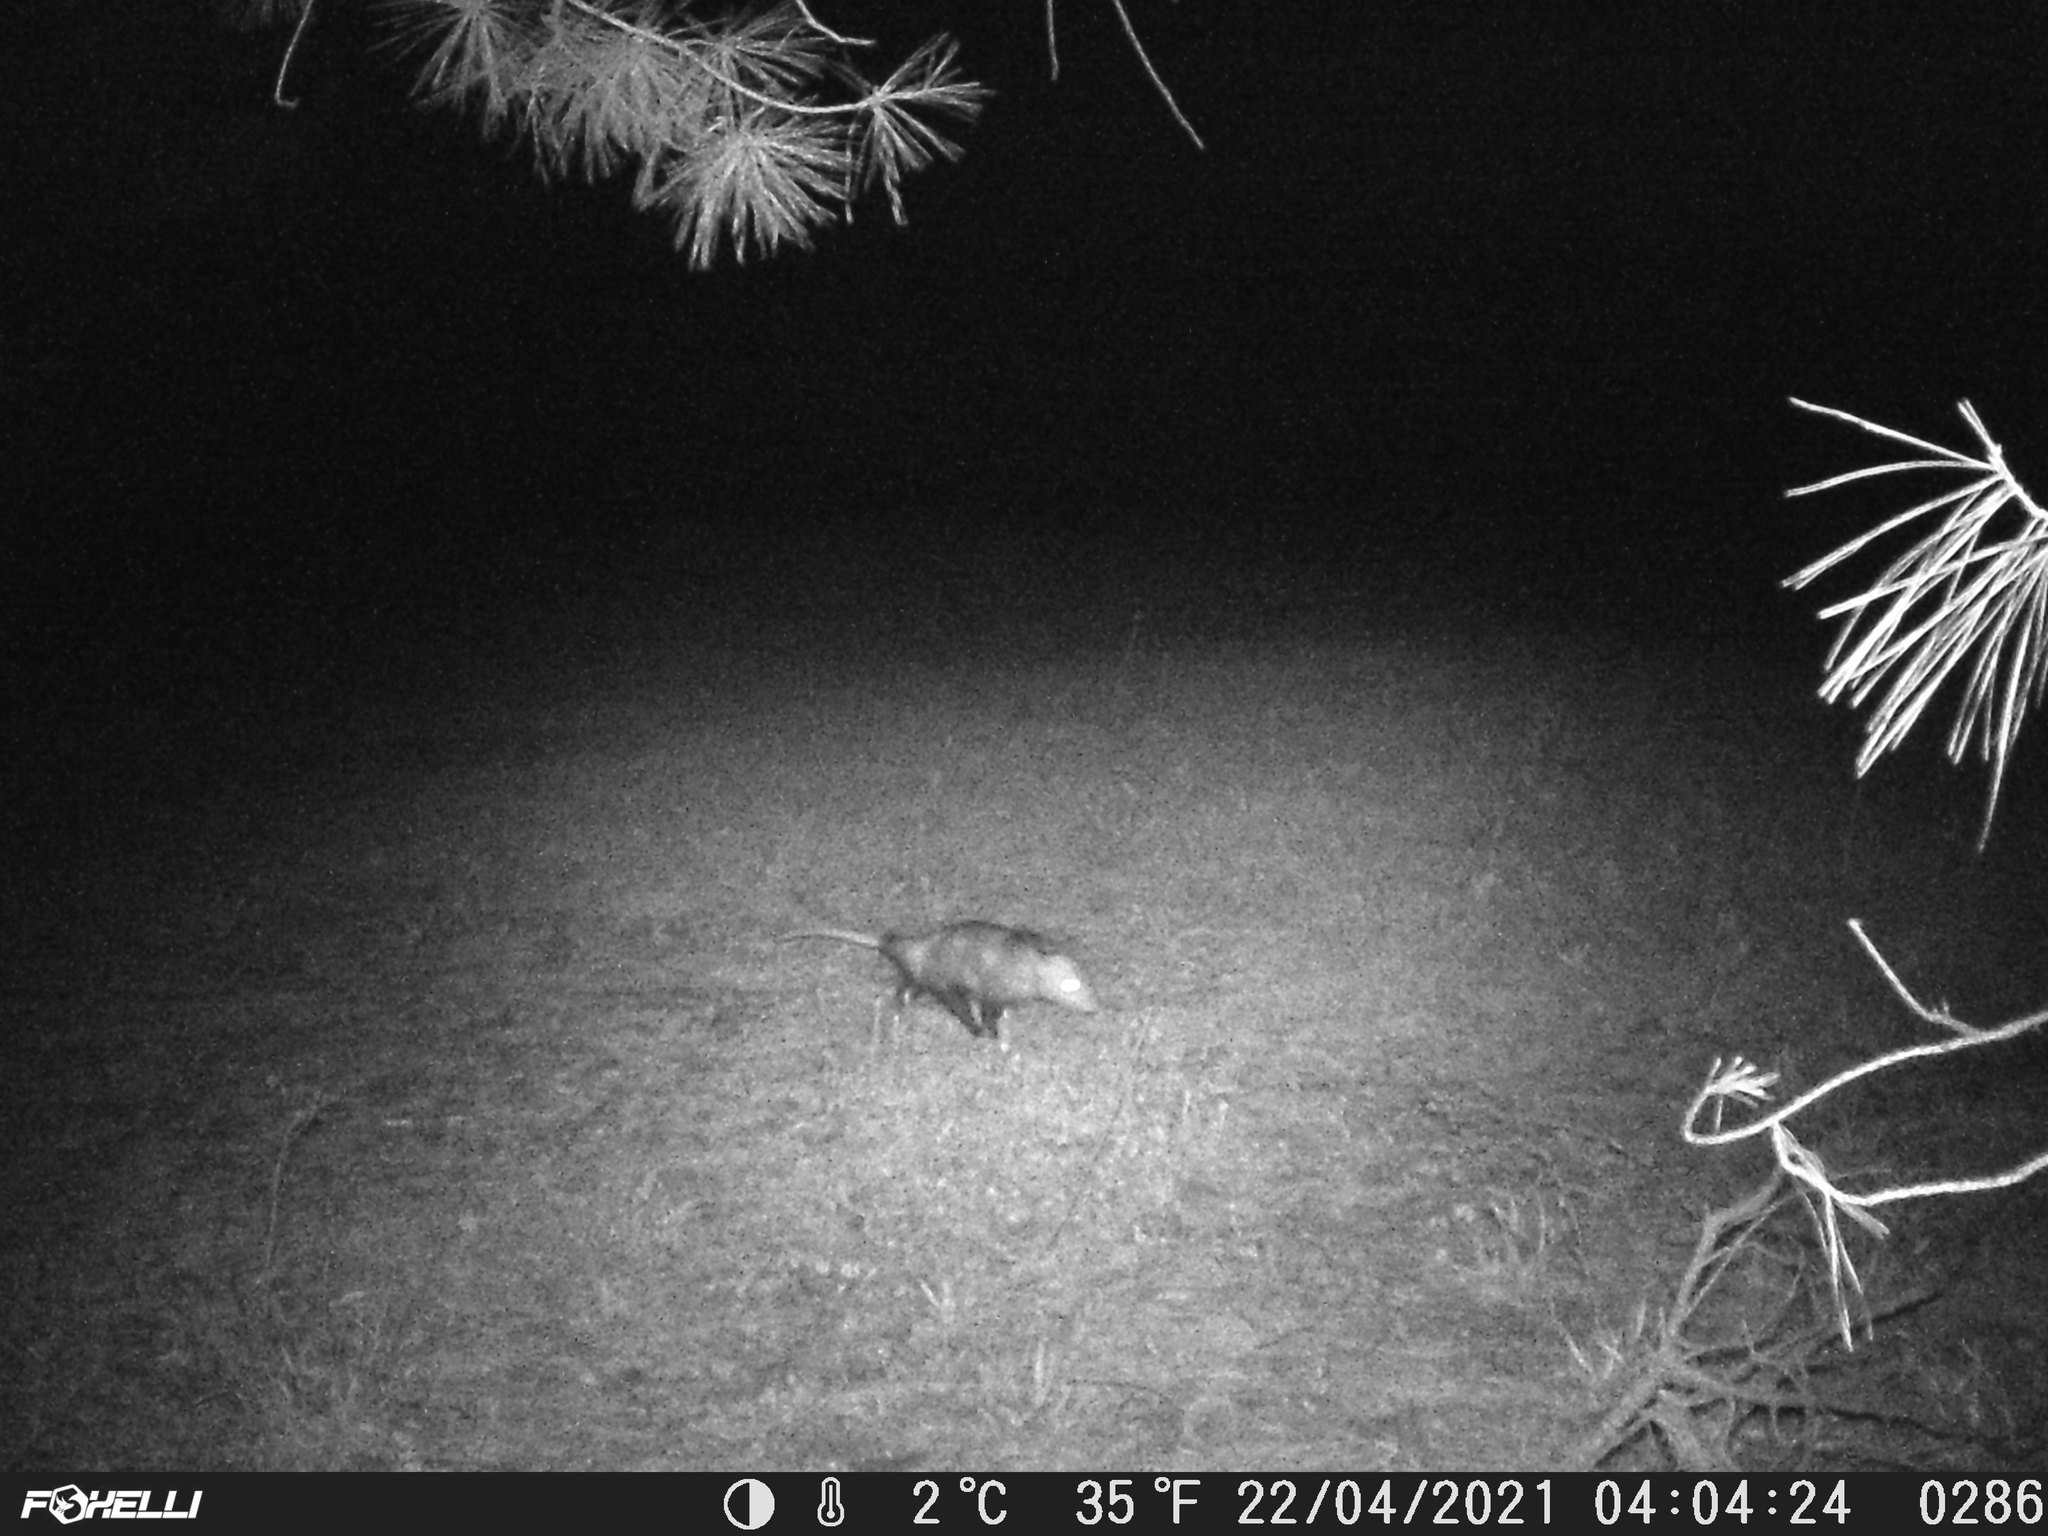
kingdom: Animalia
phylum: Chordata
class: Mammalia
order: Didelphimorphia
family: Didelphidae
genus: Didelphis
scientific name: Didelphis virginiana
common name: Virginia opossum
